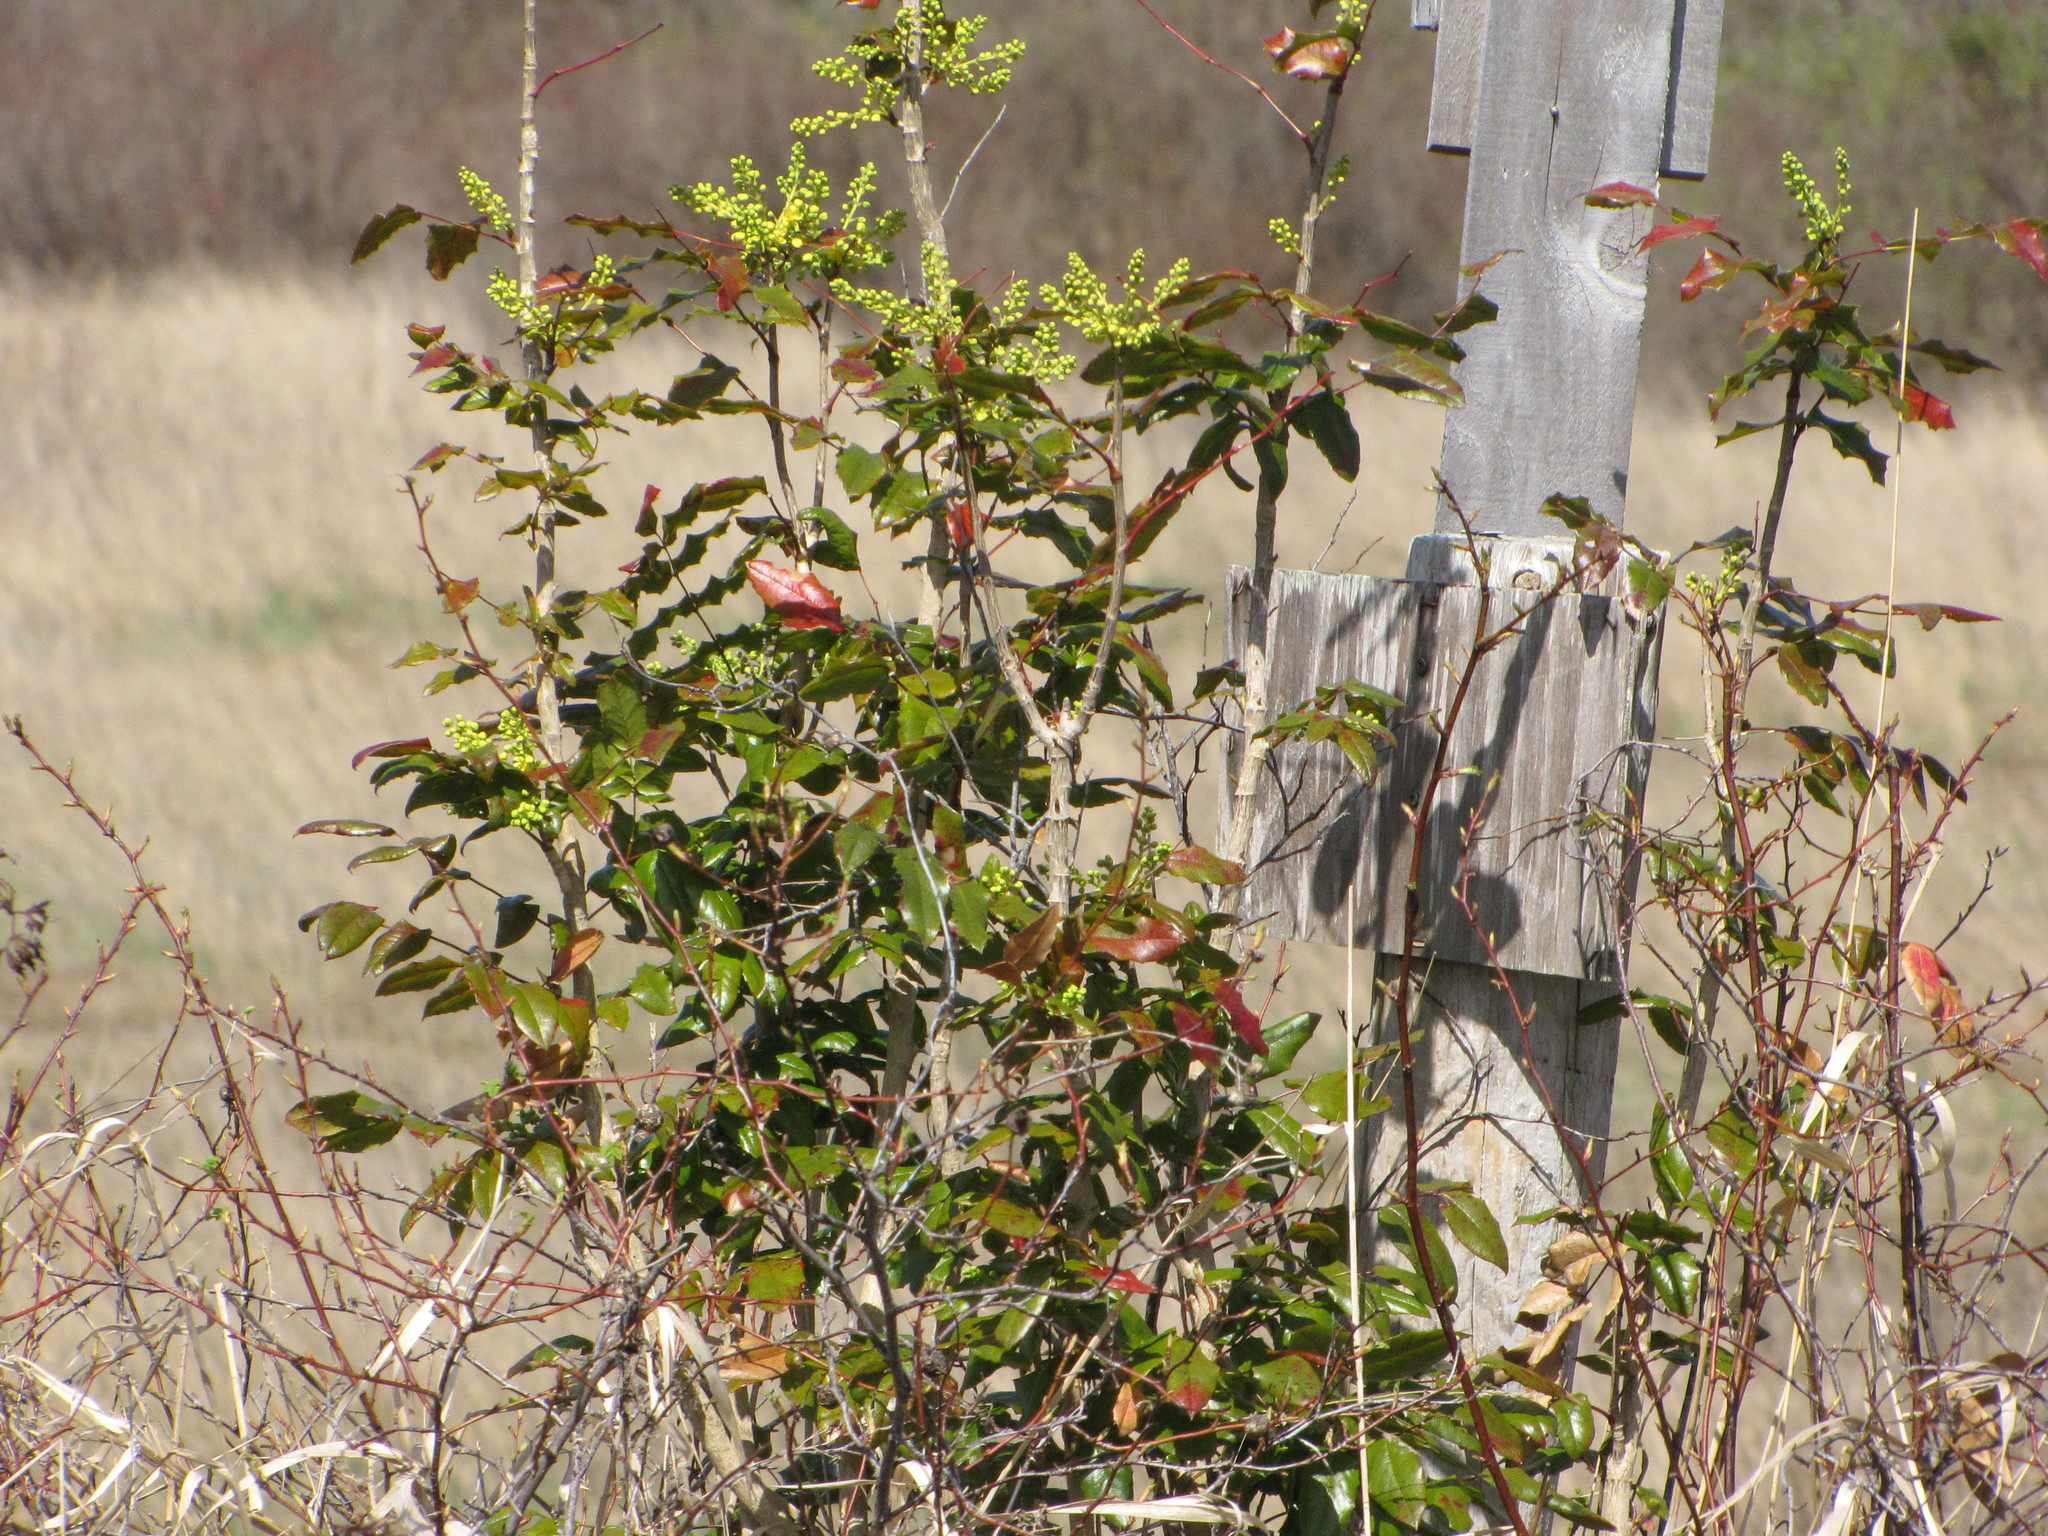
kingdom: Plantae
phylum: Tracheophyta
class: Magnoliopsida
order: Ranunculales
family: Berberidaceae
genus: Mahonia
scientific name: Mahonia aquifolium
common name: Oregon-grape
